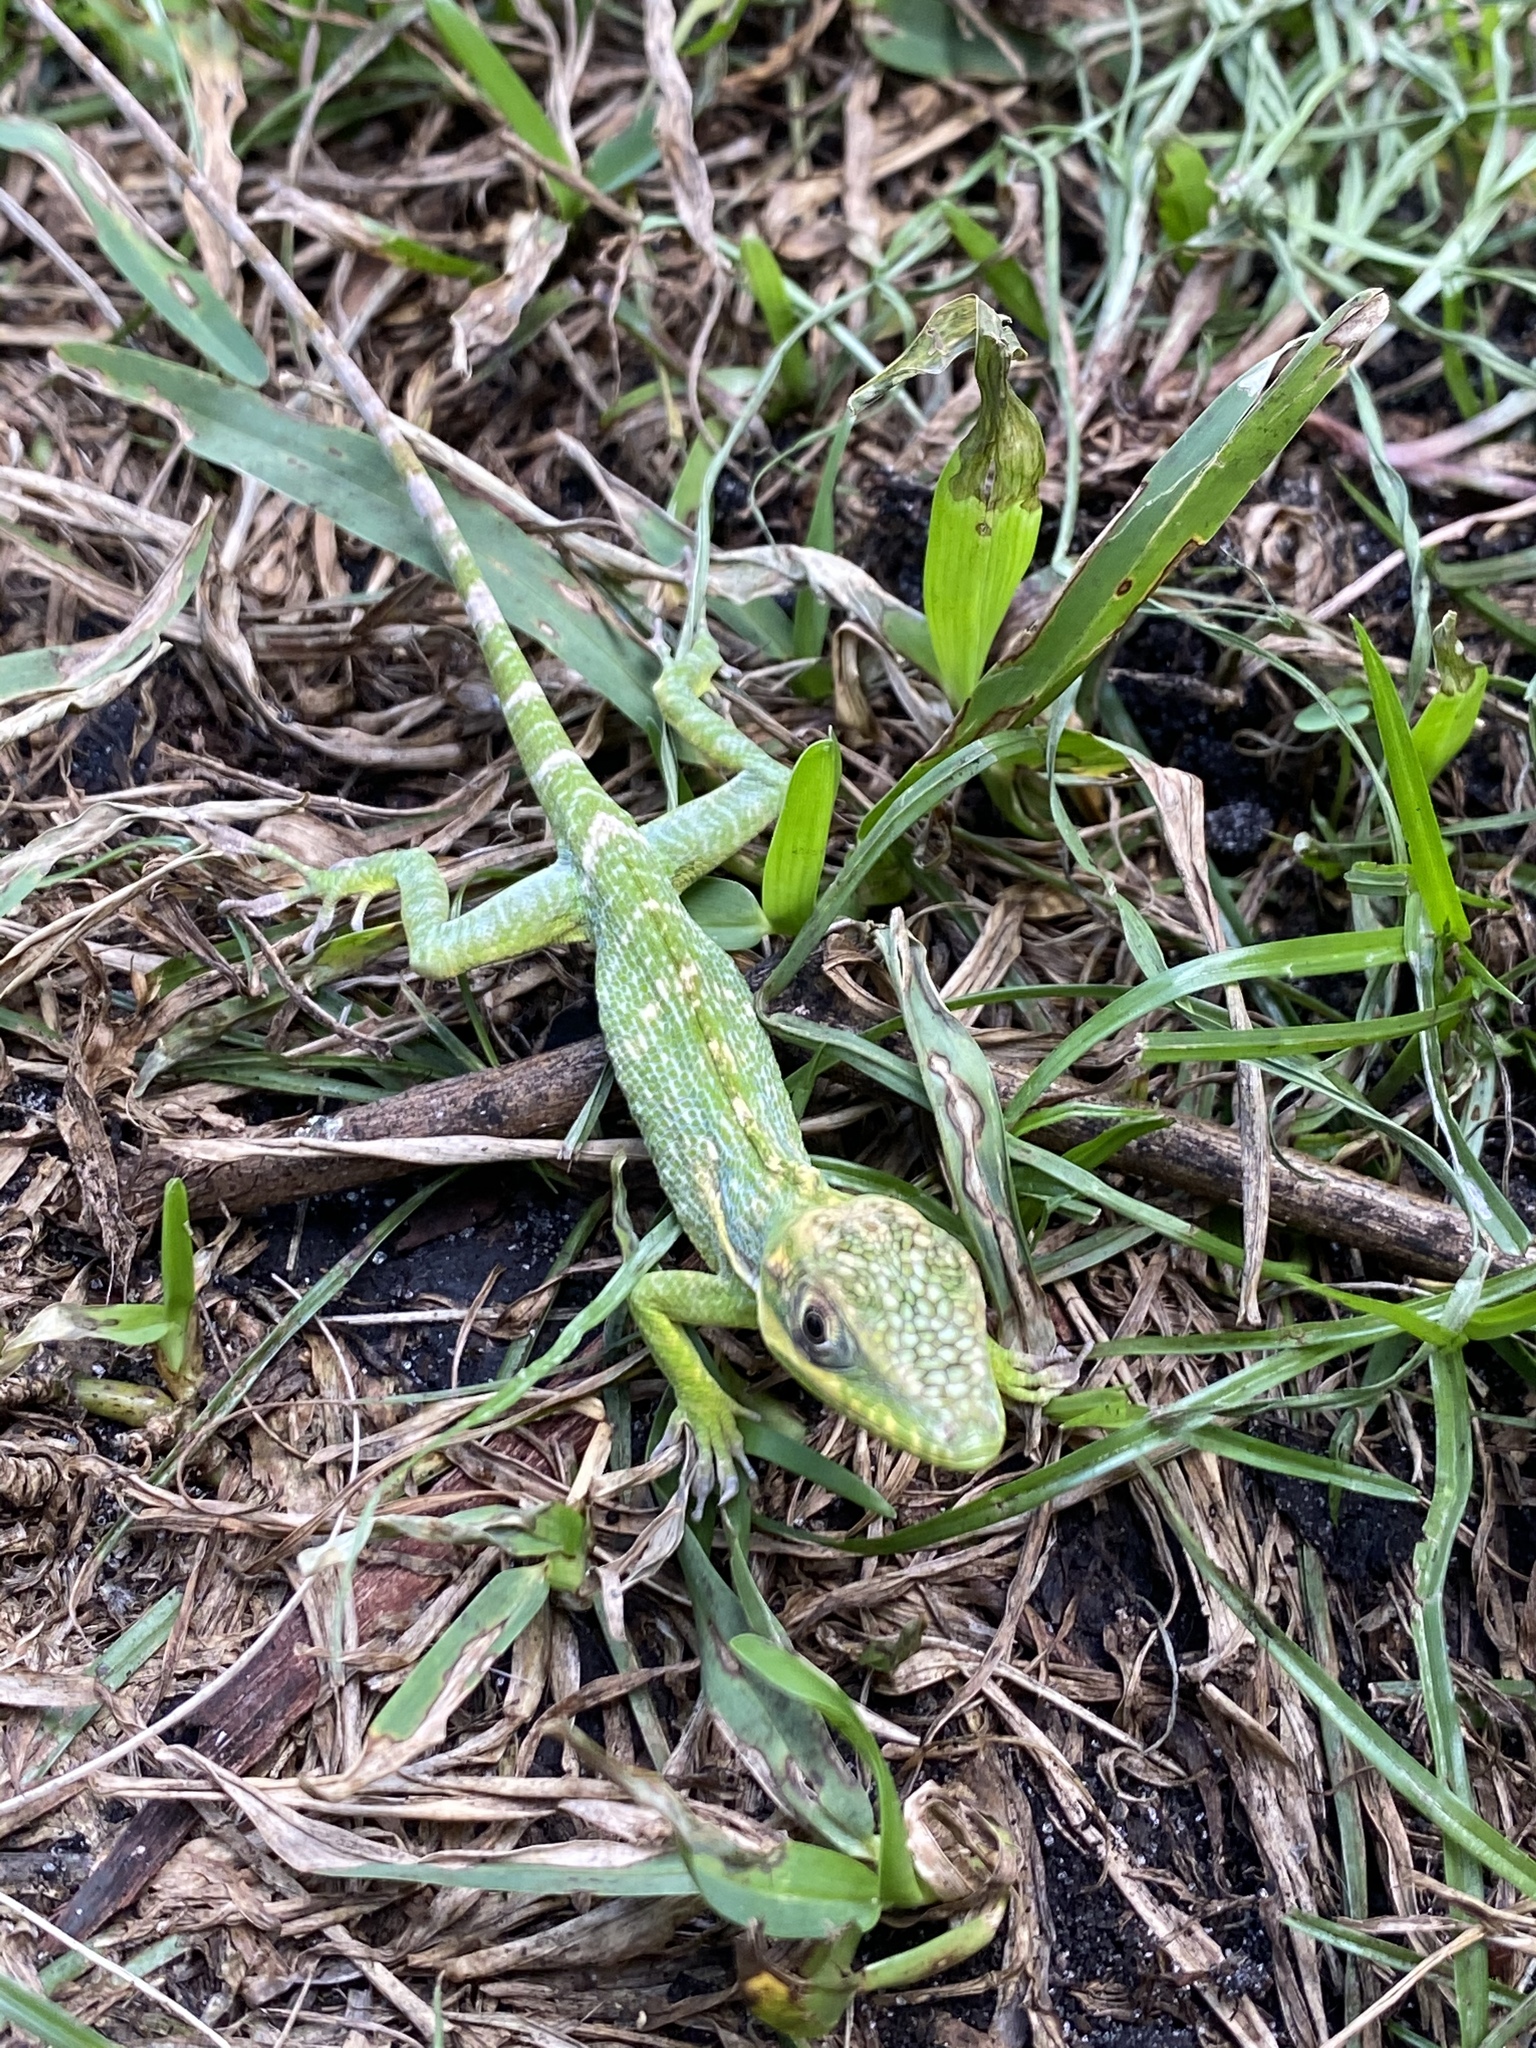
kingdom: Animalia
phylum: Chordata
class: Squamata
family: Dactyloidae
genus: Anolis
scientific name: Anolis equestris
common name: Knight anole
